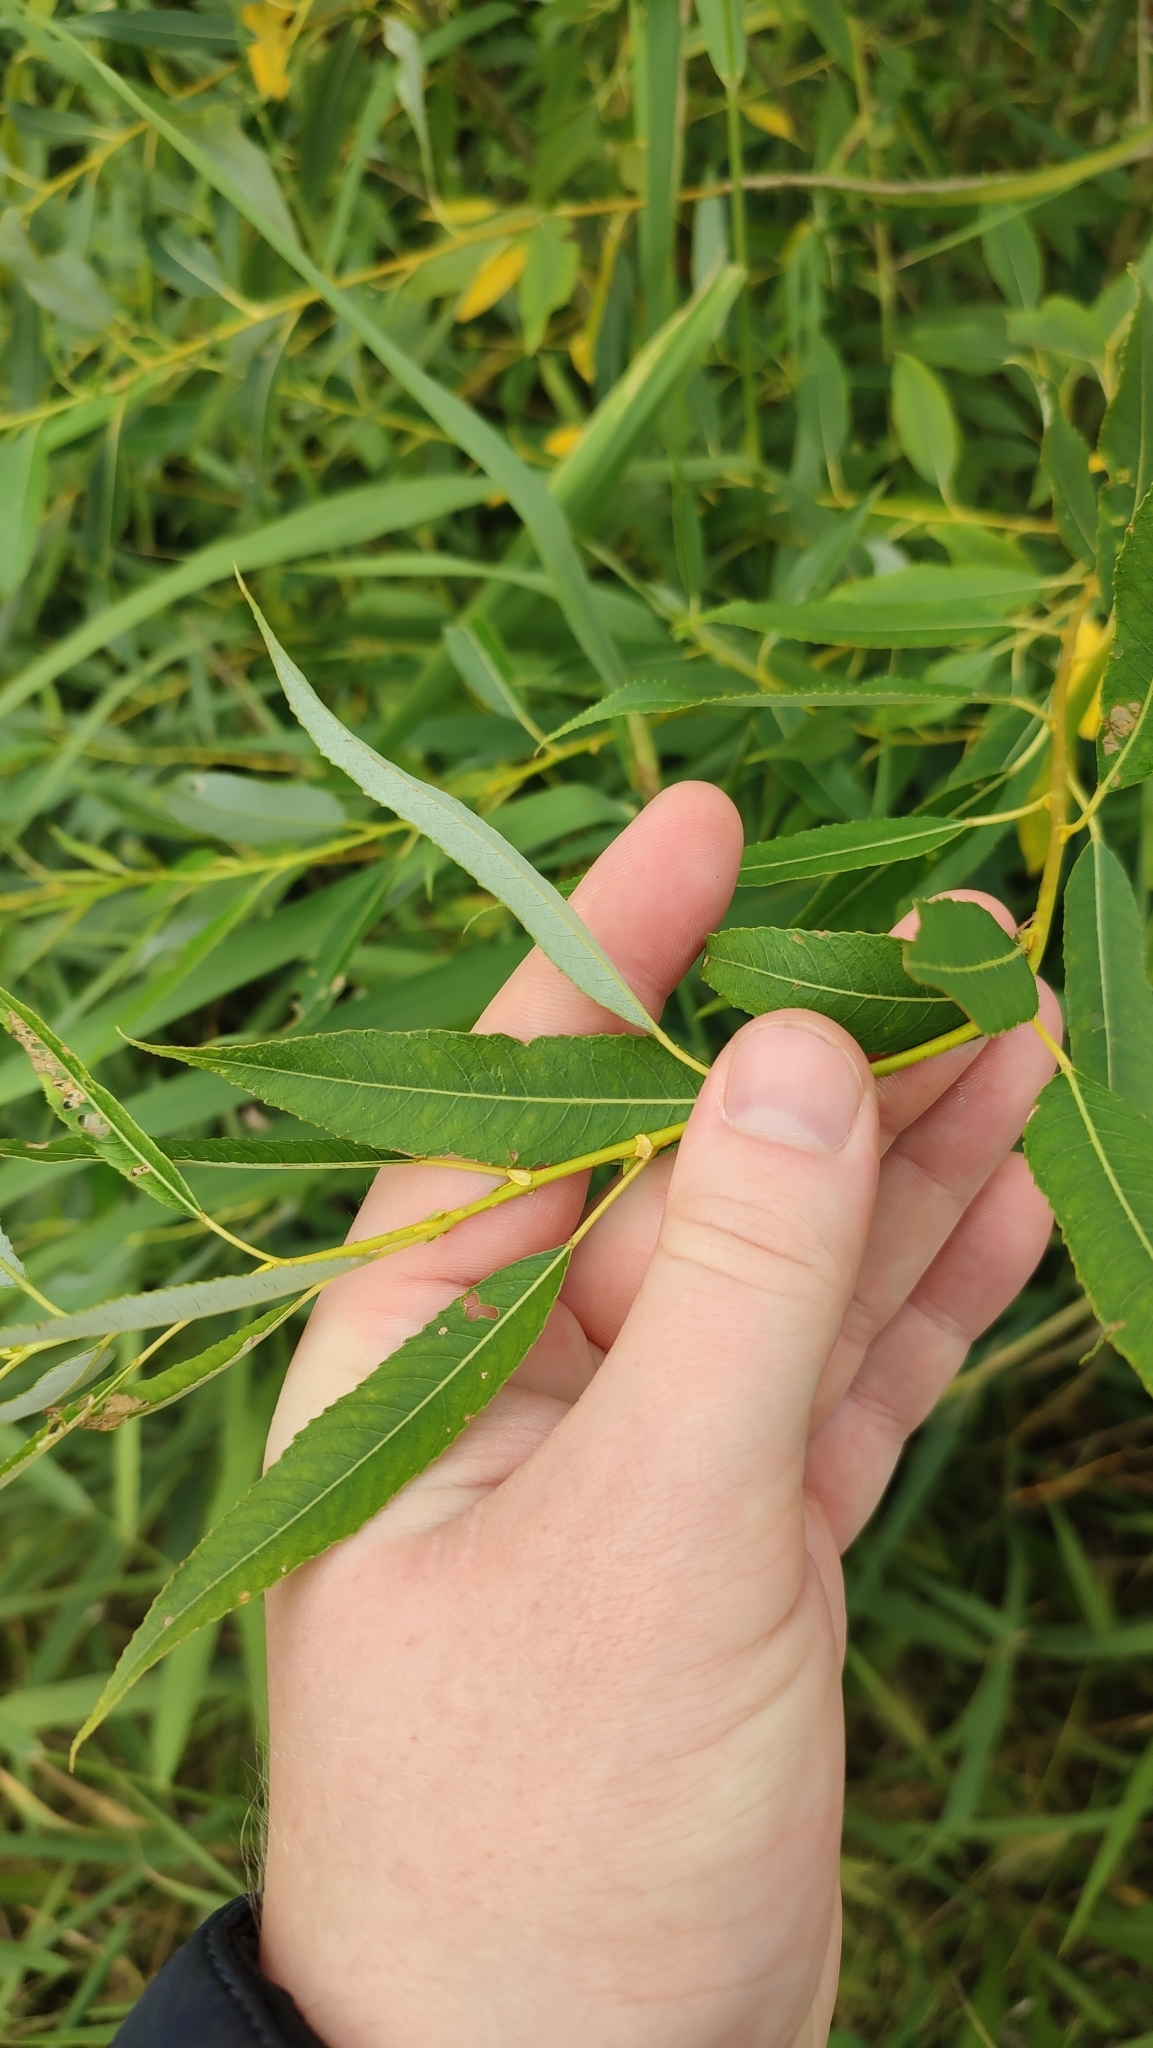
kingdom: Plantae
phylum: Tracheophyta
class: Magnoliopsida
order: Malpighiales
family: Salicaceae
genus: Salix
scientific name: Salix triandra
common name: Almond willow
